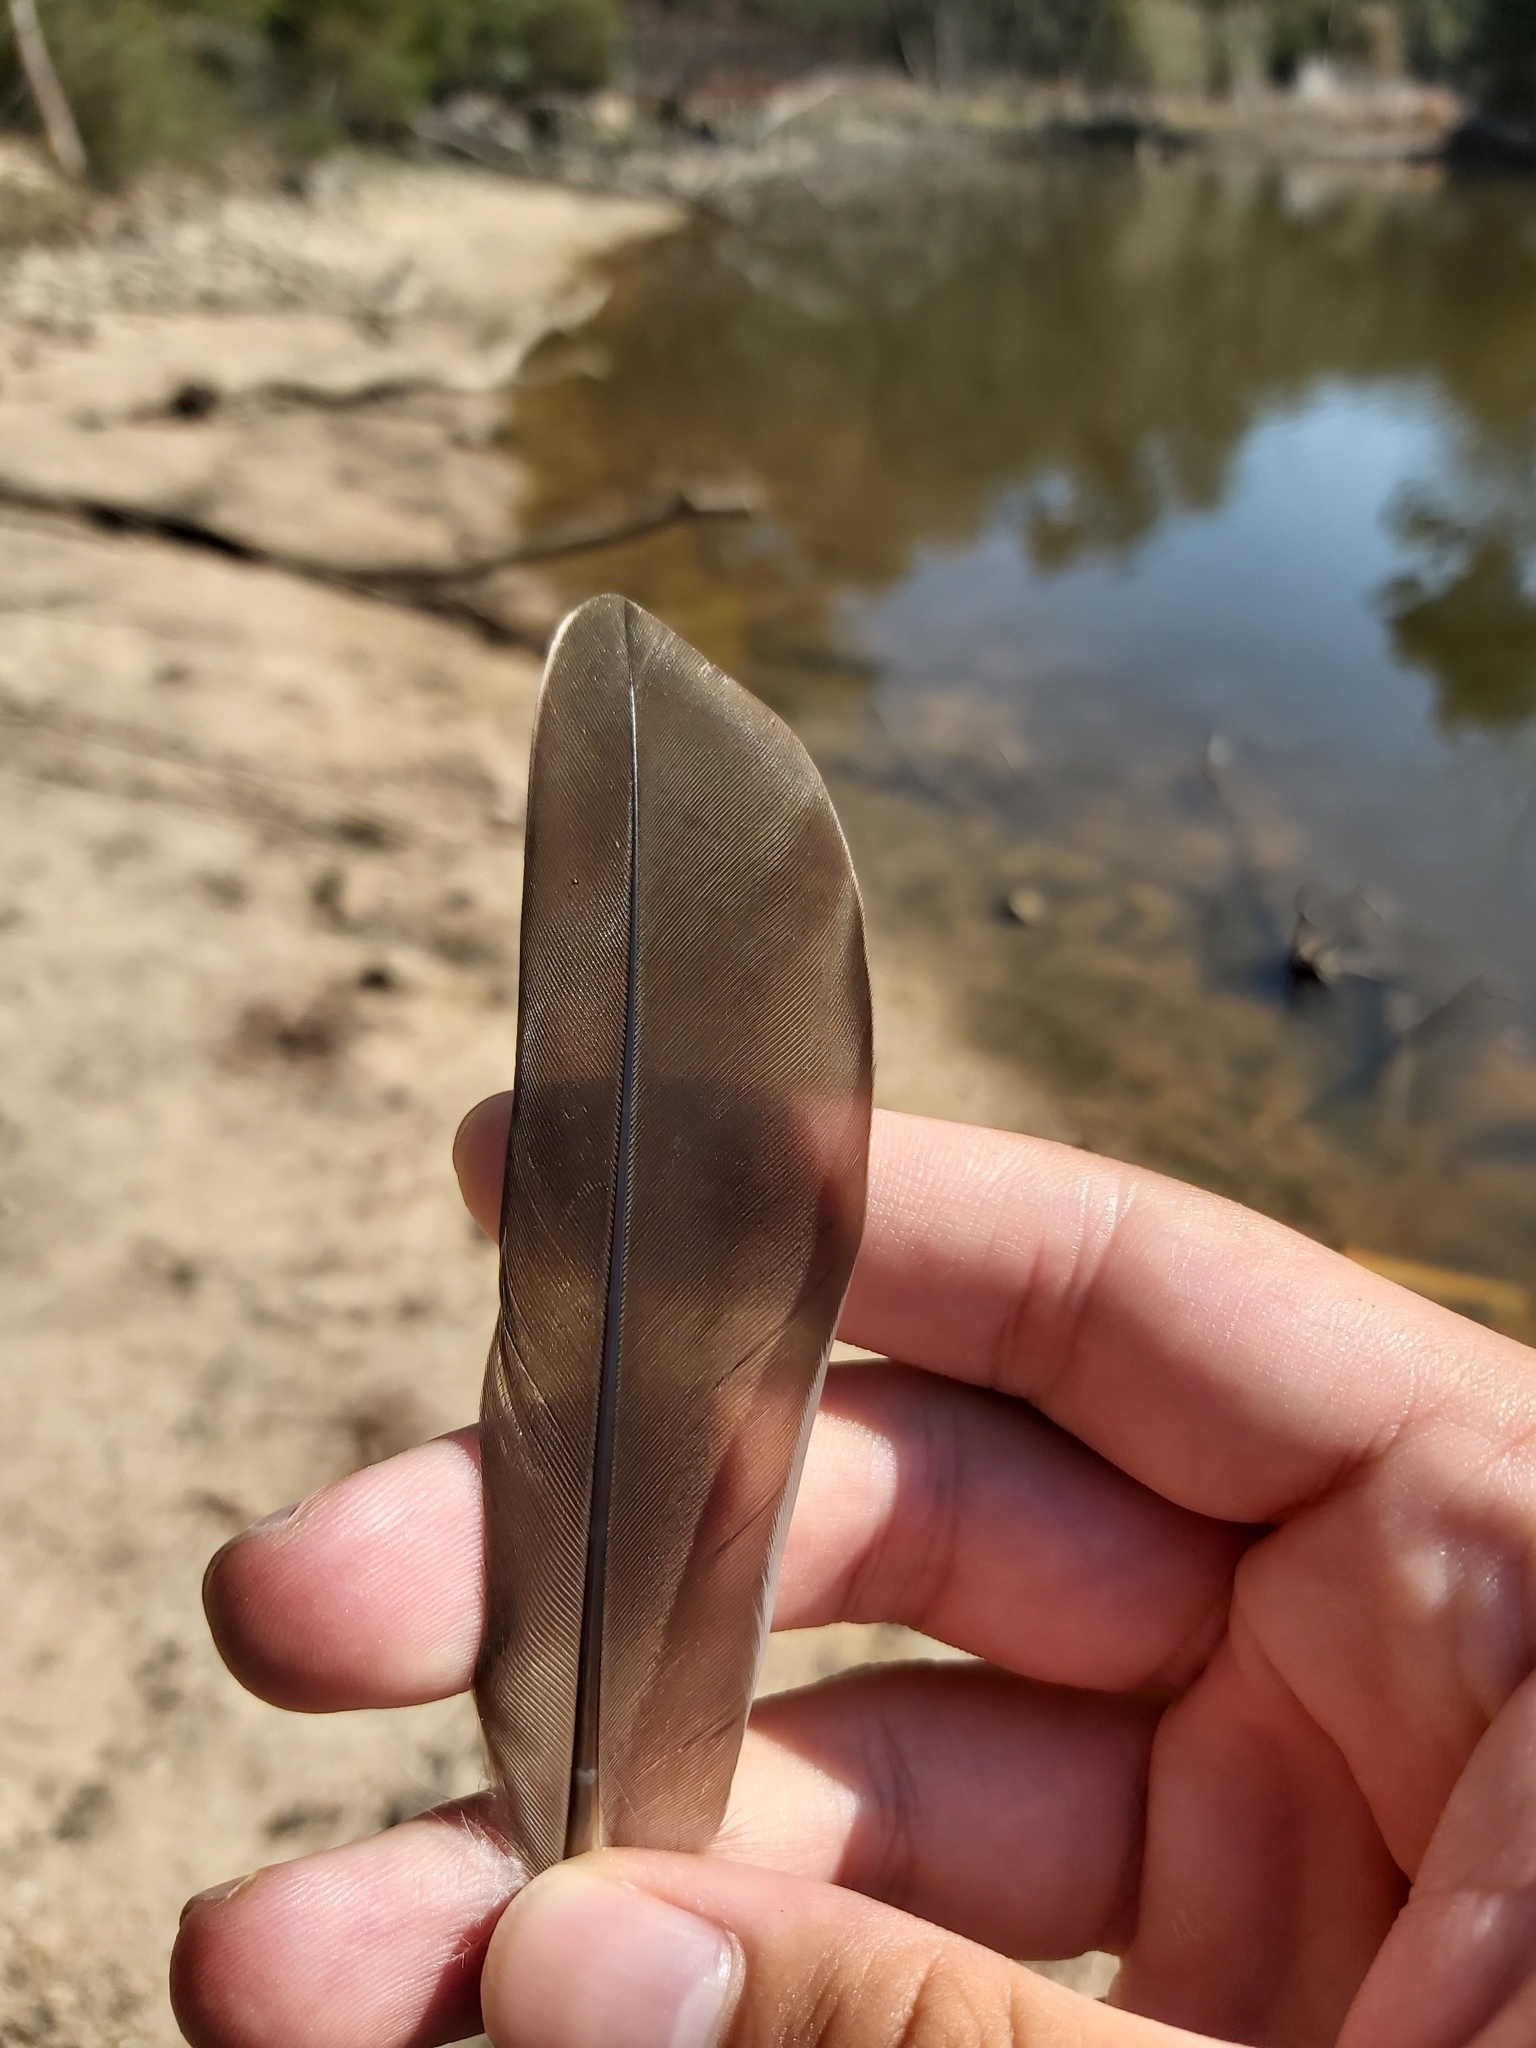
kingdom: Animalia
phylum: Chordata
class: Aves
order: Anseriformes
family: Anatidae
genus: Anas
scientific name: Anas superciliosa
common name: Pacific black duck
